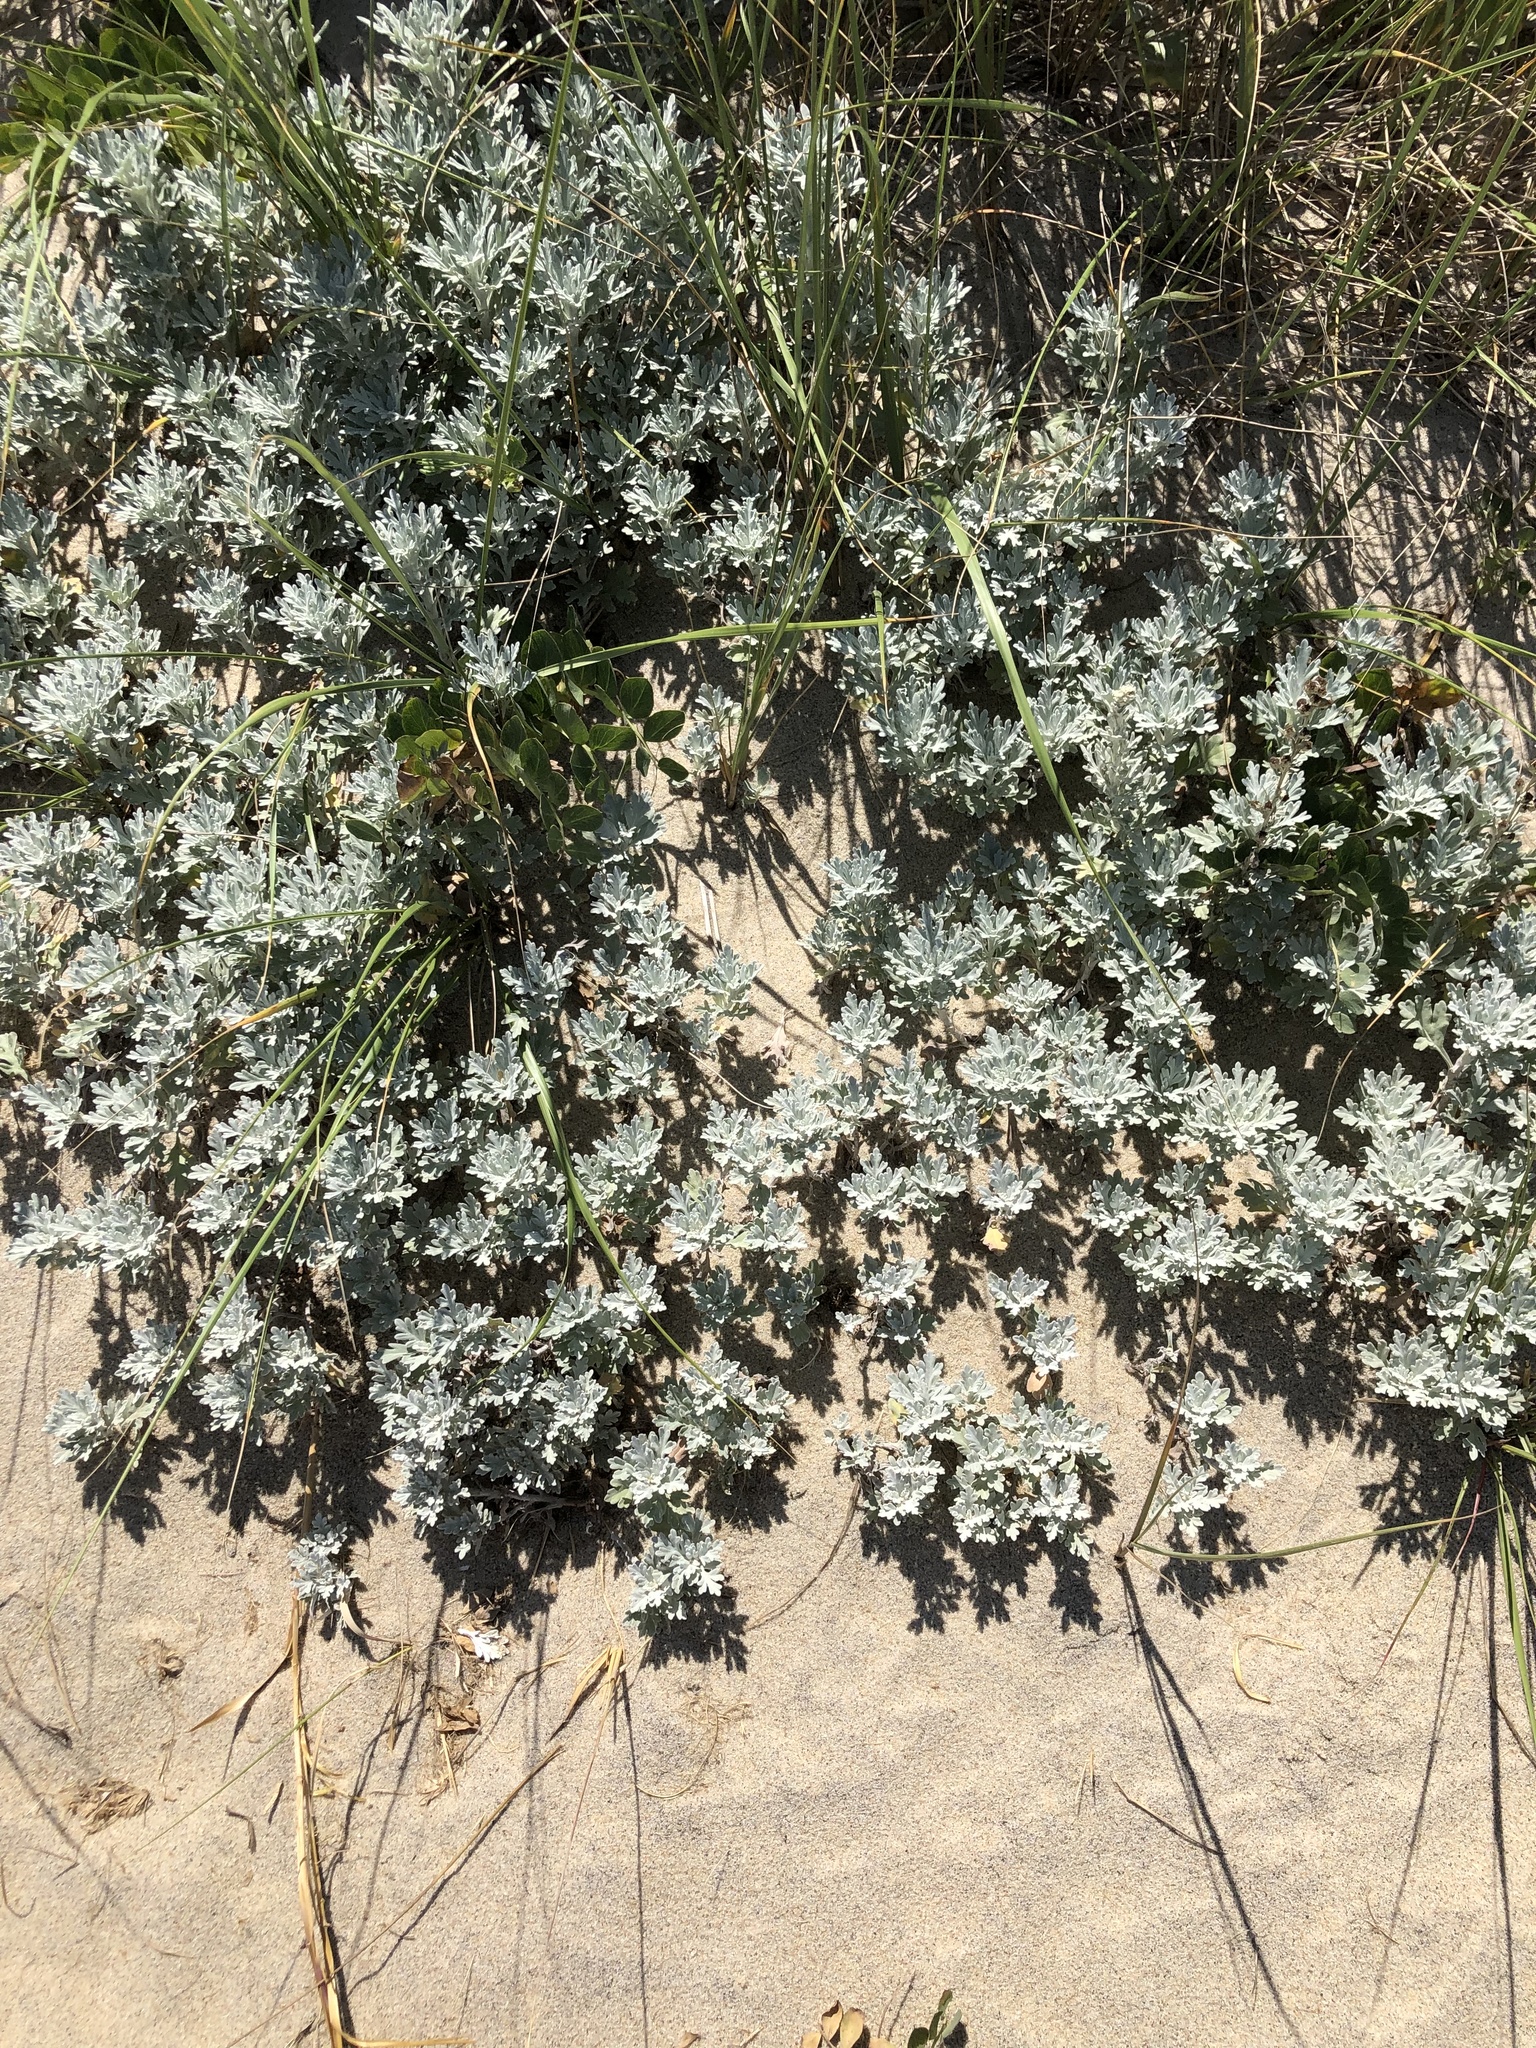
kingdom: Plantae
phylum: Tracheophyta
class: Magnoliopsida
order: Asterales
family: Asteraceae
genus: Artemisia
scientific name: Artemisia stelleriana
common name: Beach wormwood
